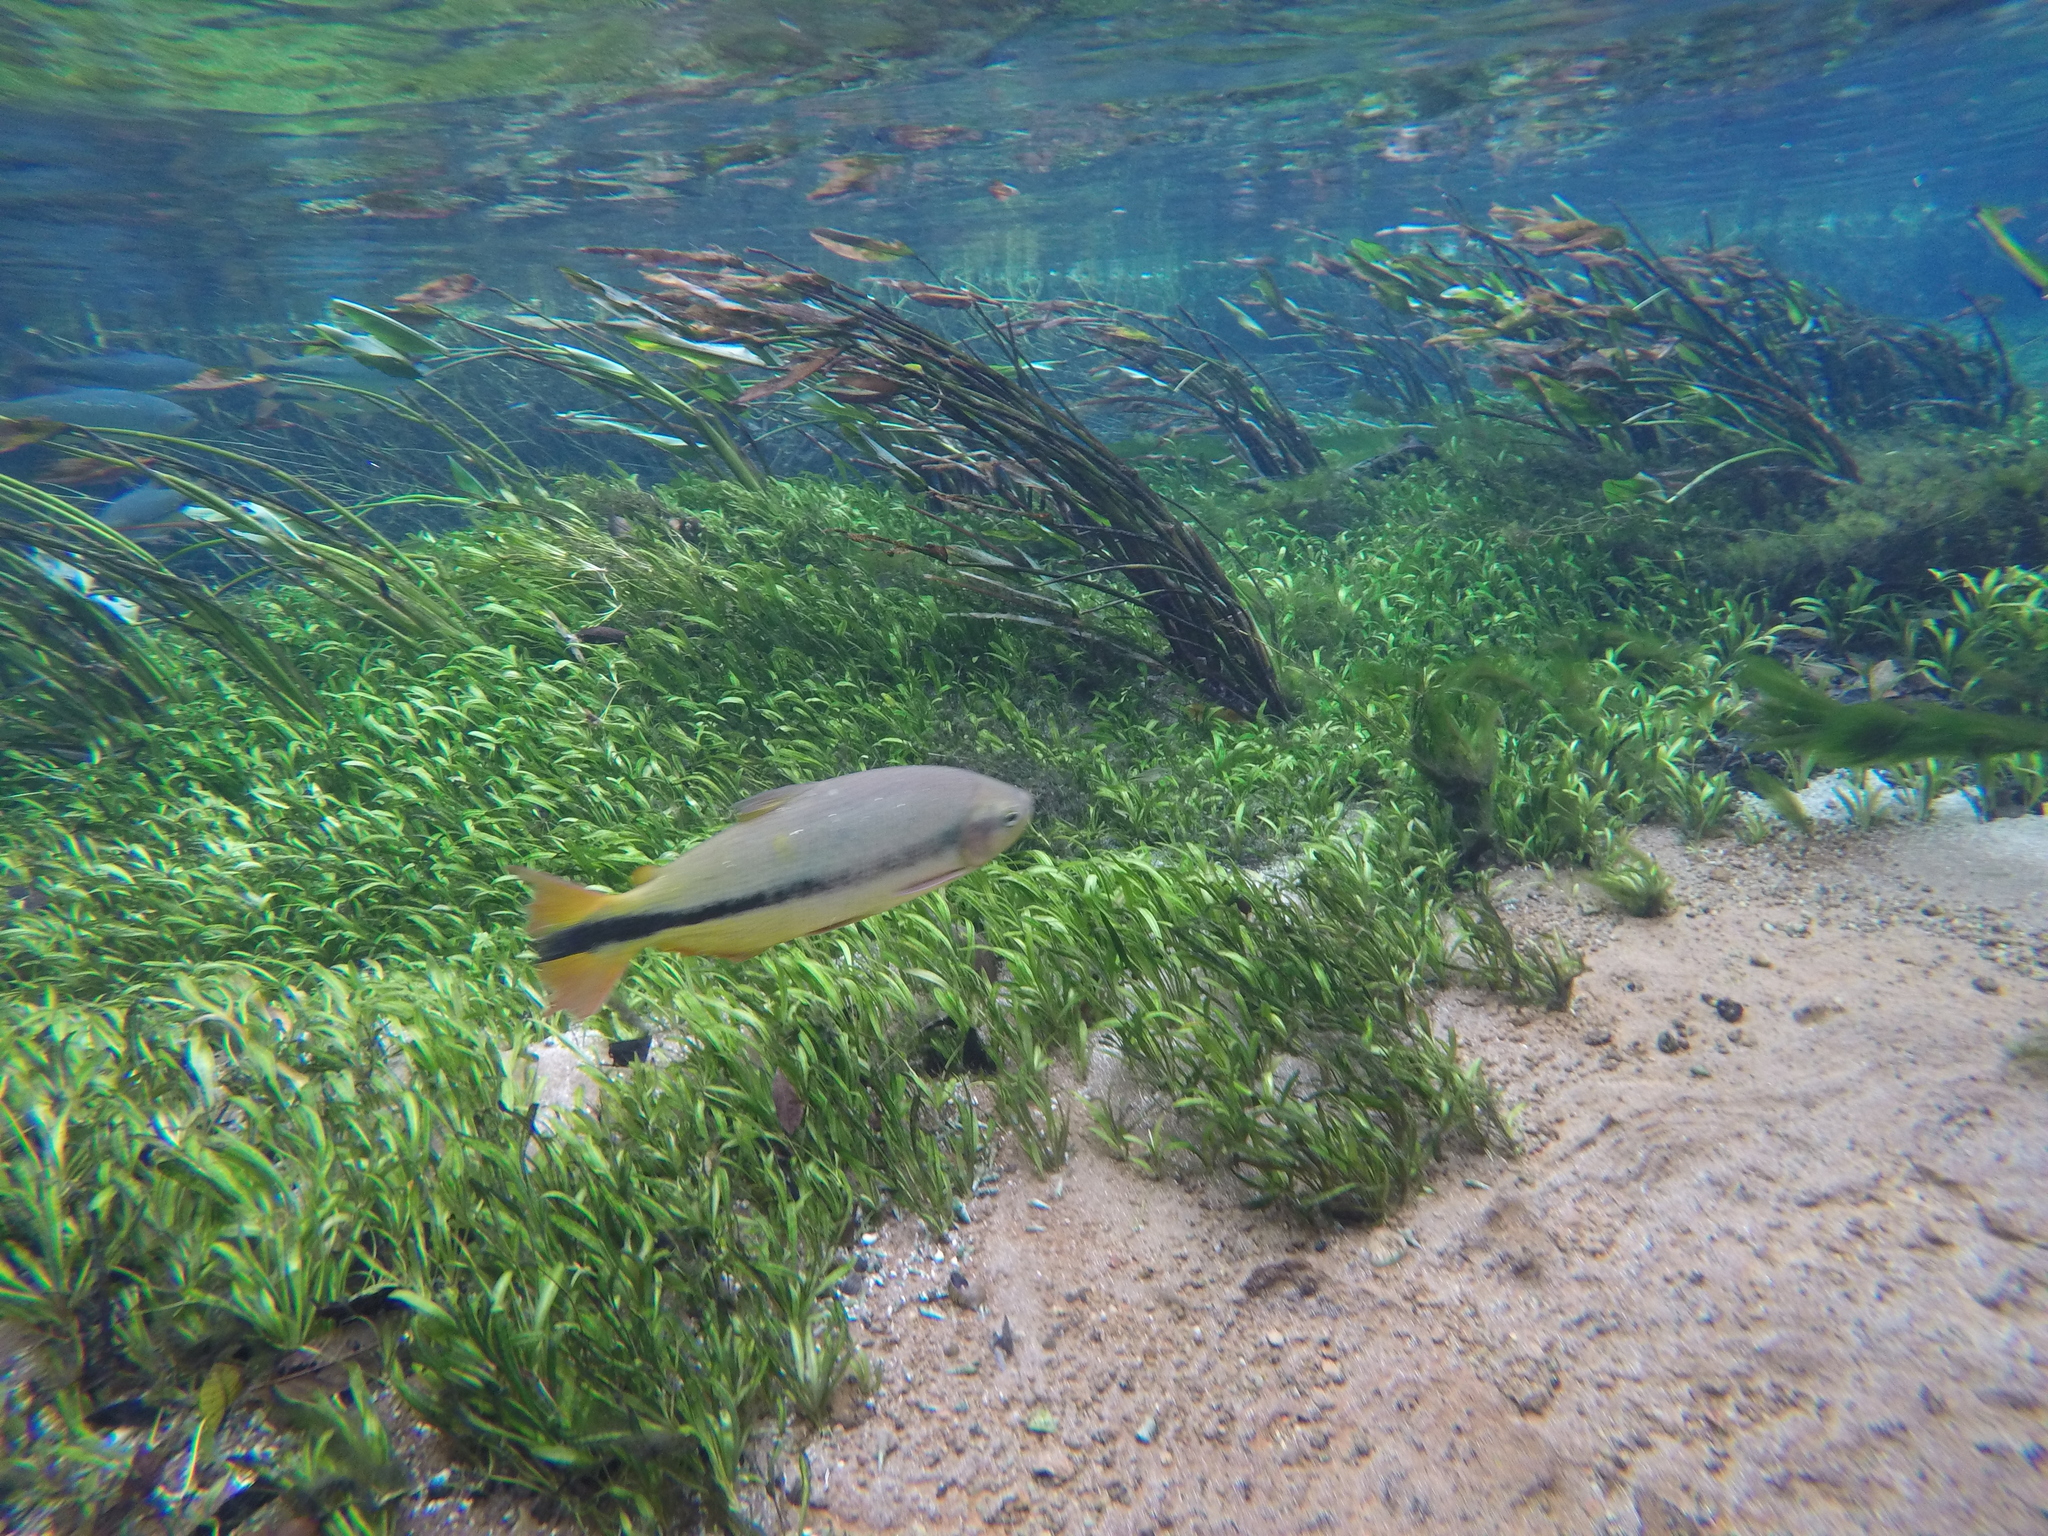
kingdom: Animalia
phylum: Chordata
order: Characiformes
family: Bryconidae
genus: Brycon
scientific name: Brycon hilarii
